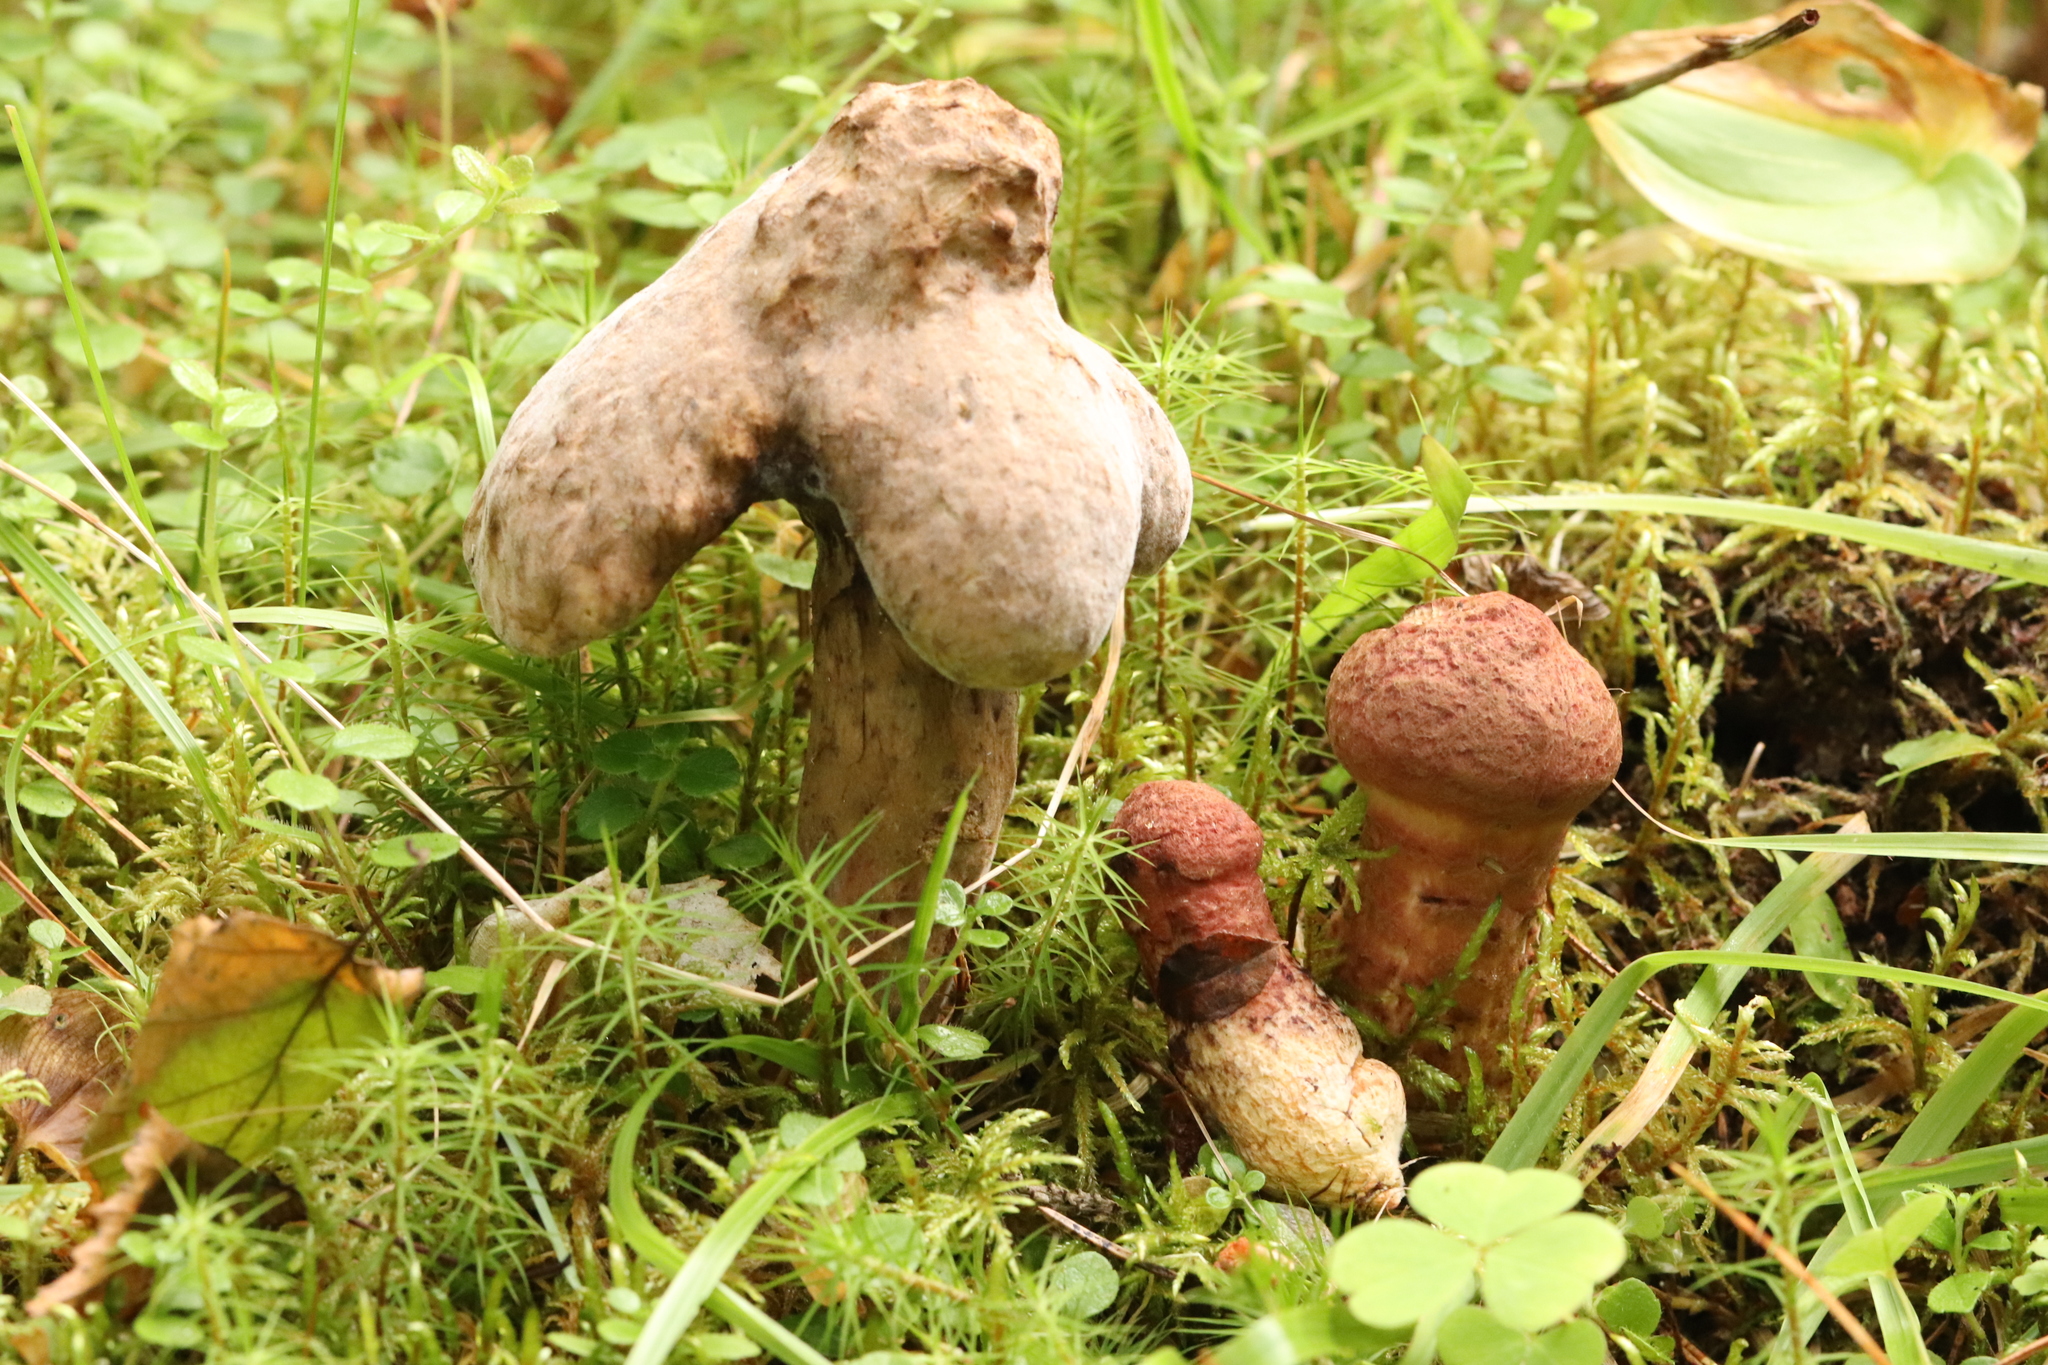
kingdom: Fungi
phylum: Basidiomycota
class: Agaricomycetes
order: Boletales
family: Suillaceae
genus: Suillus
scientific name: Suillus spraguei
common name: Painted suillus
